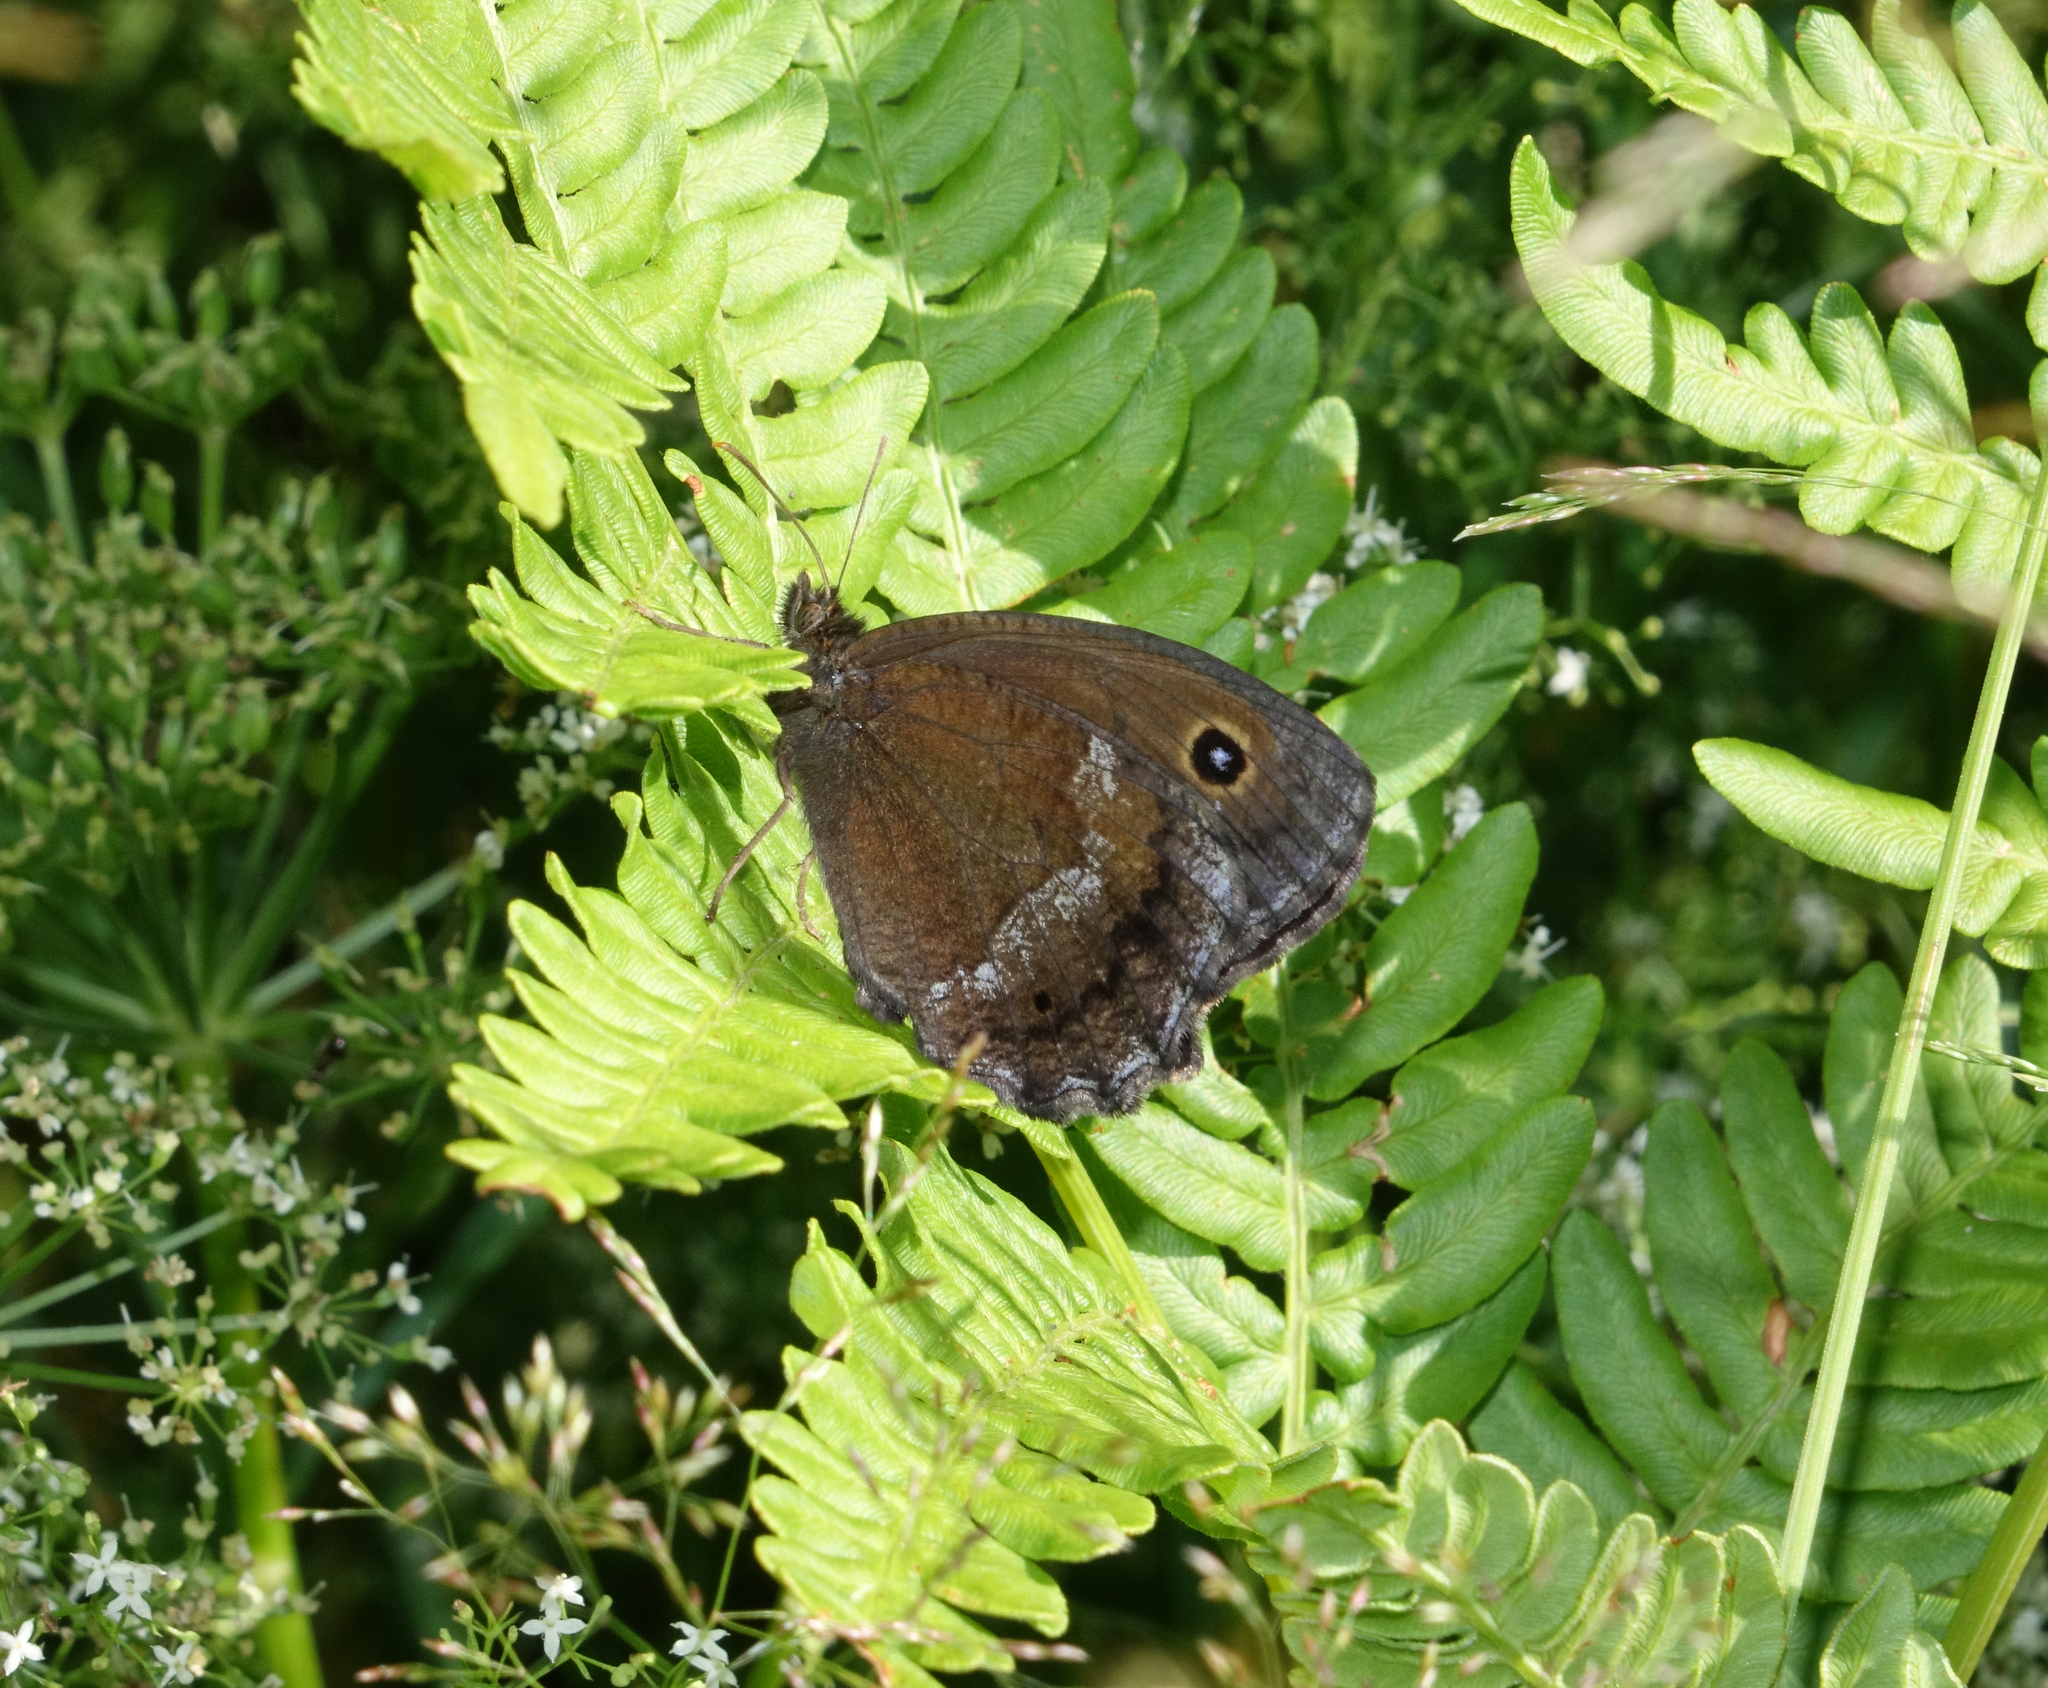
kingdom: Animalia
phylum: Arthropoda
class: Insecta
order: Lepidoptera
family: Nymphalidae
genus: Minois
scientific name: Minois dryas
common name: Dryad
